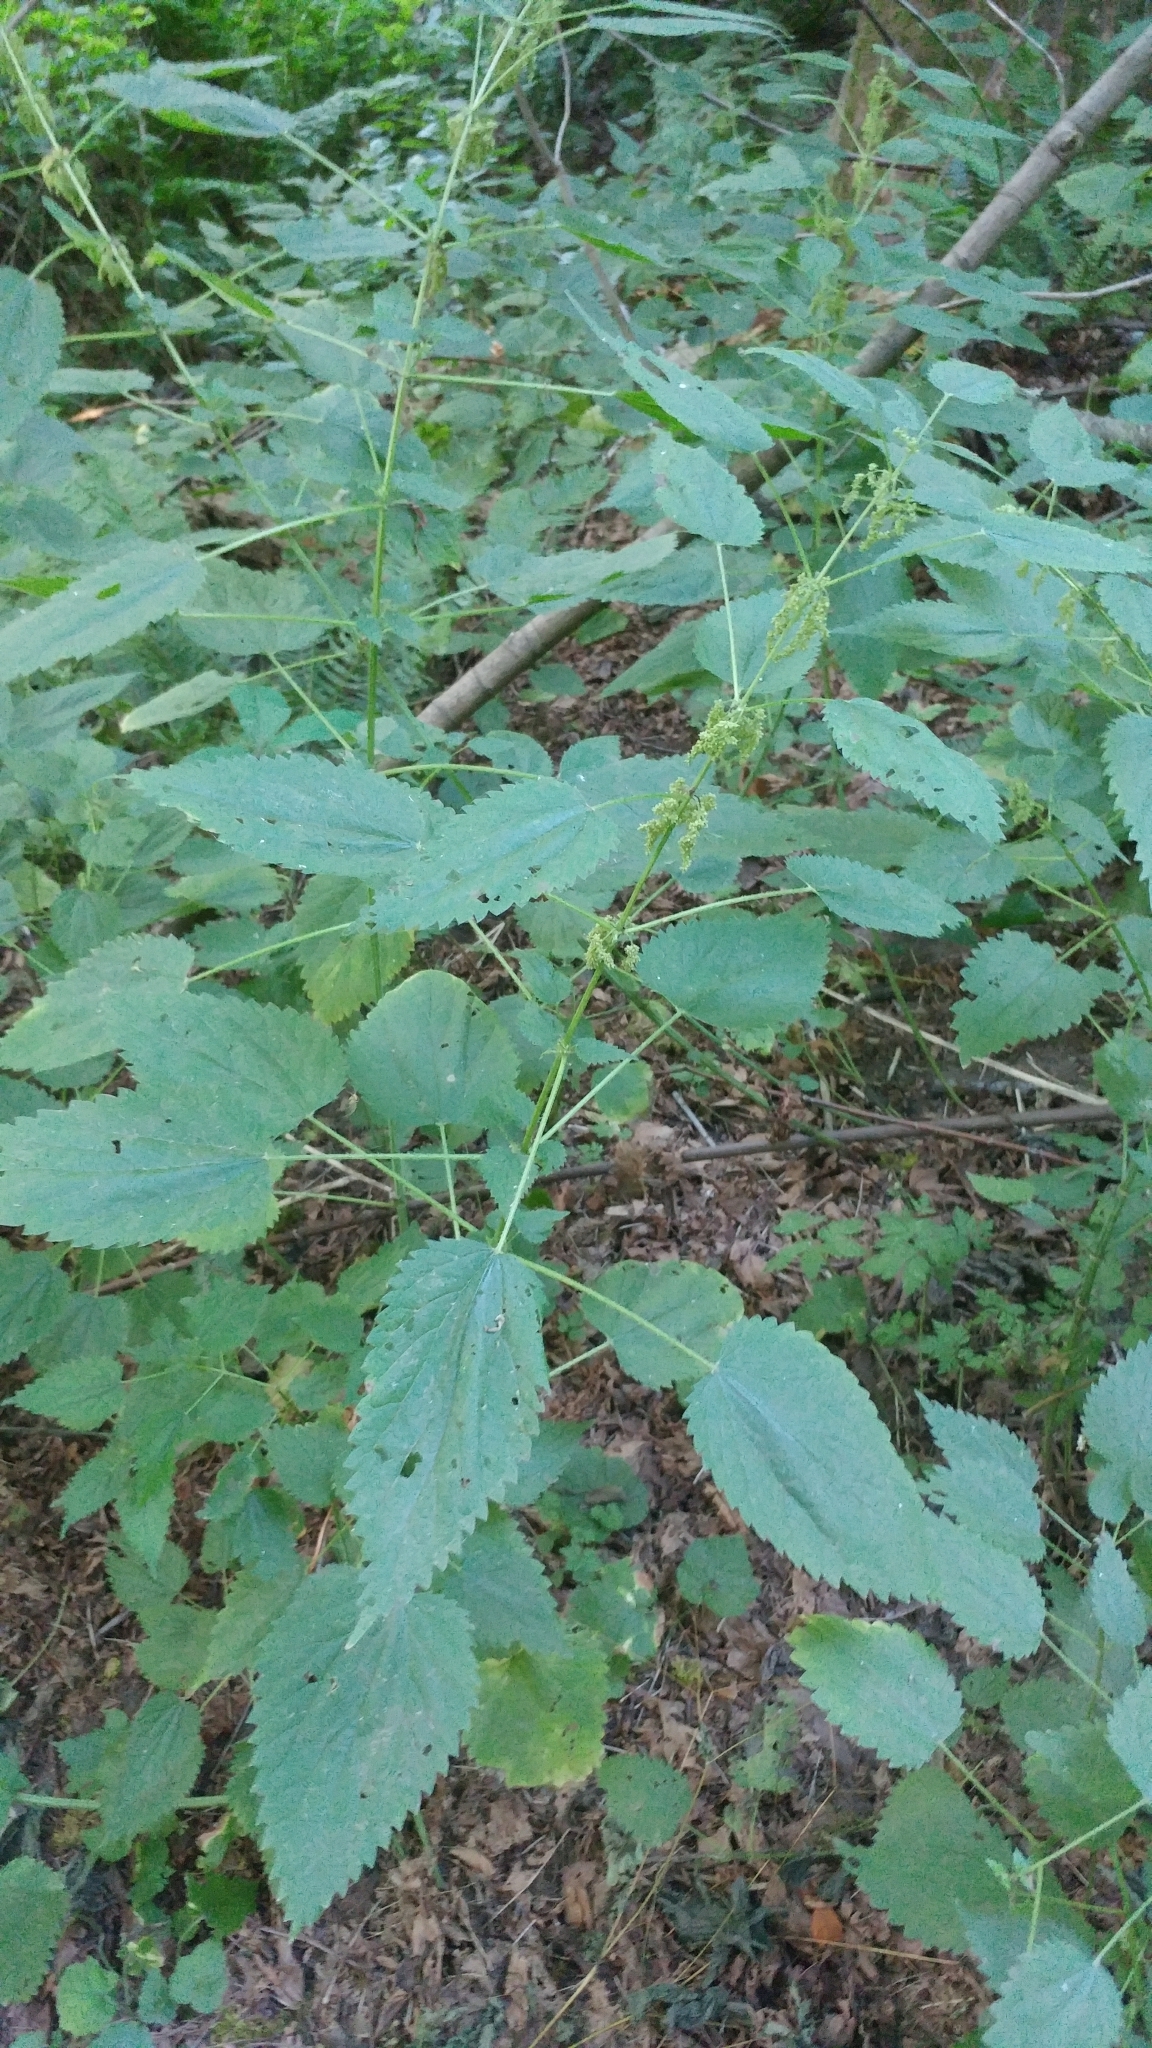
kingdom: Plantae
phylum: Tracheophyta
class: Magnoliopsida
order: Rosales
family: Urticaceae
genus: Urtica
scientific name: Urtica gracilis
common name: Slender stinging nettle
